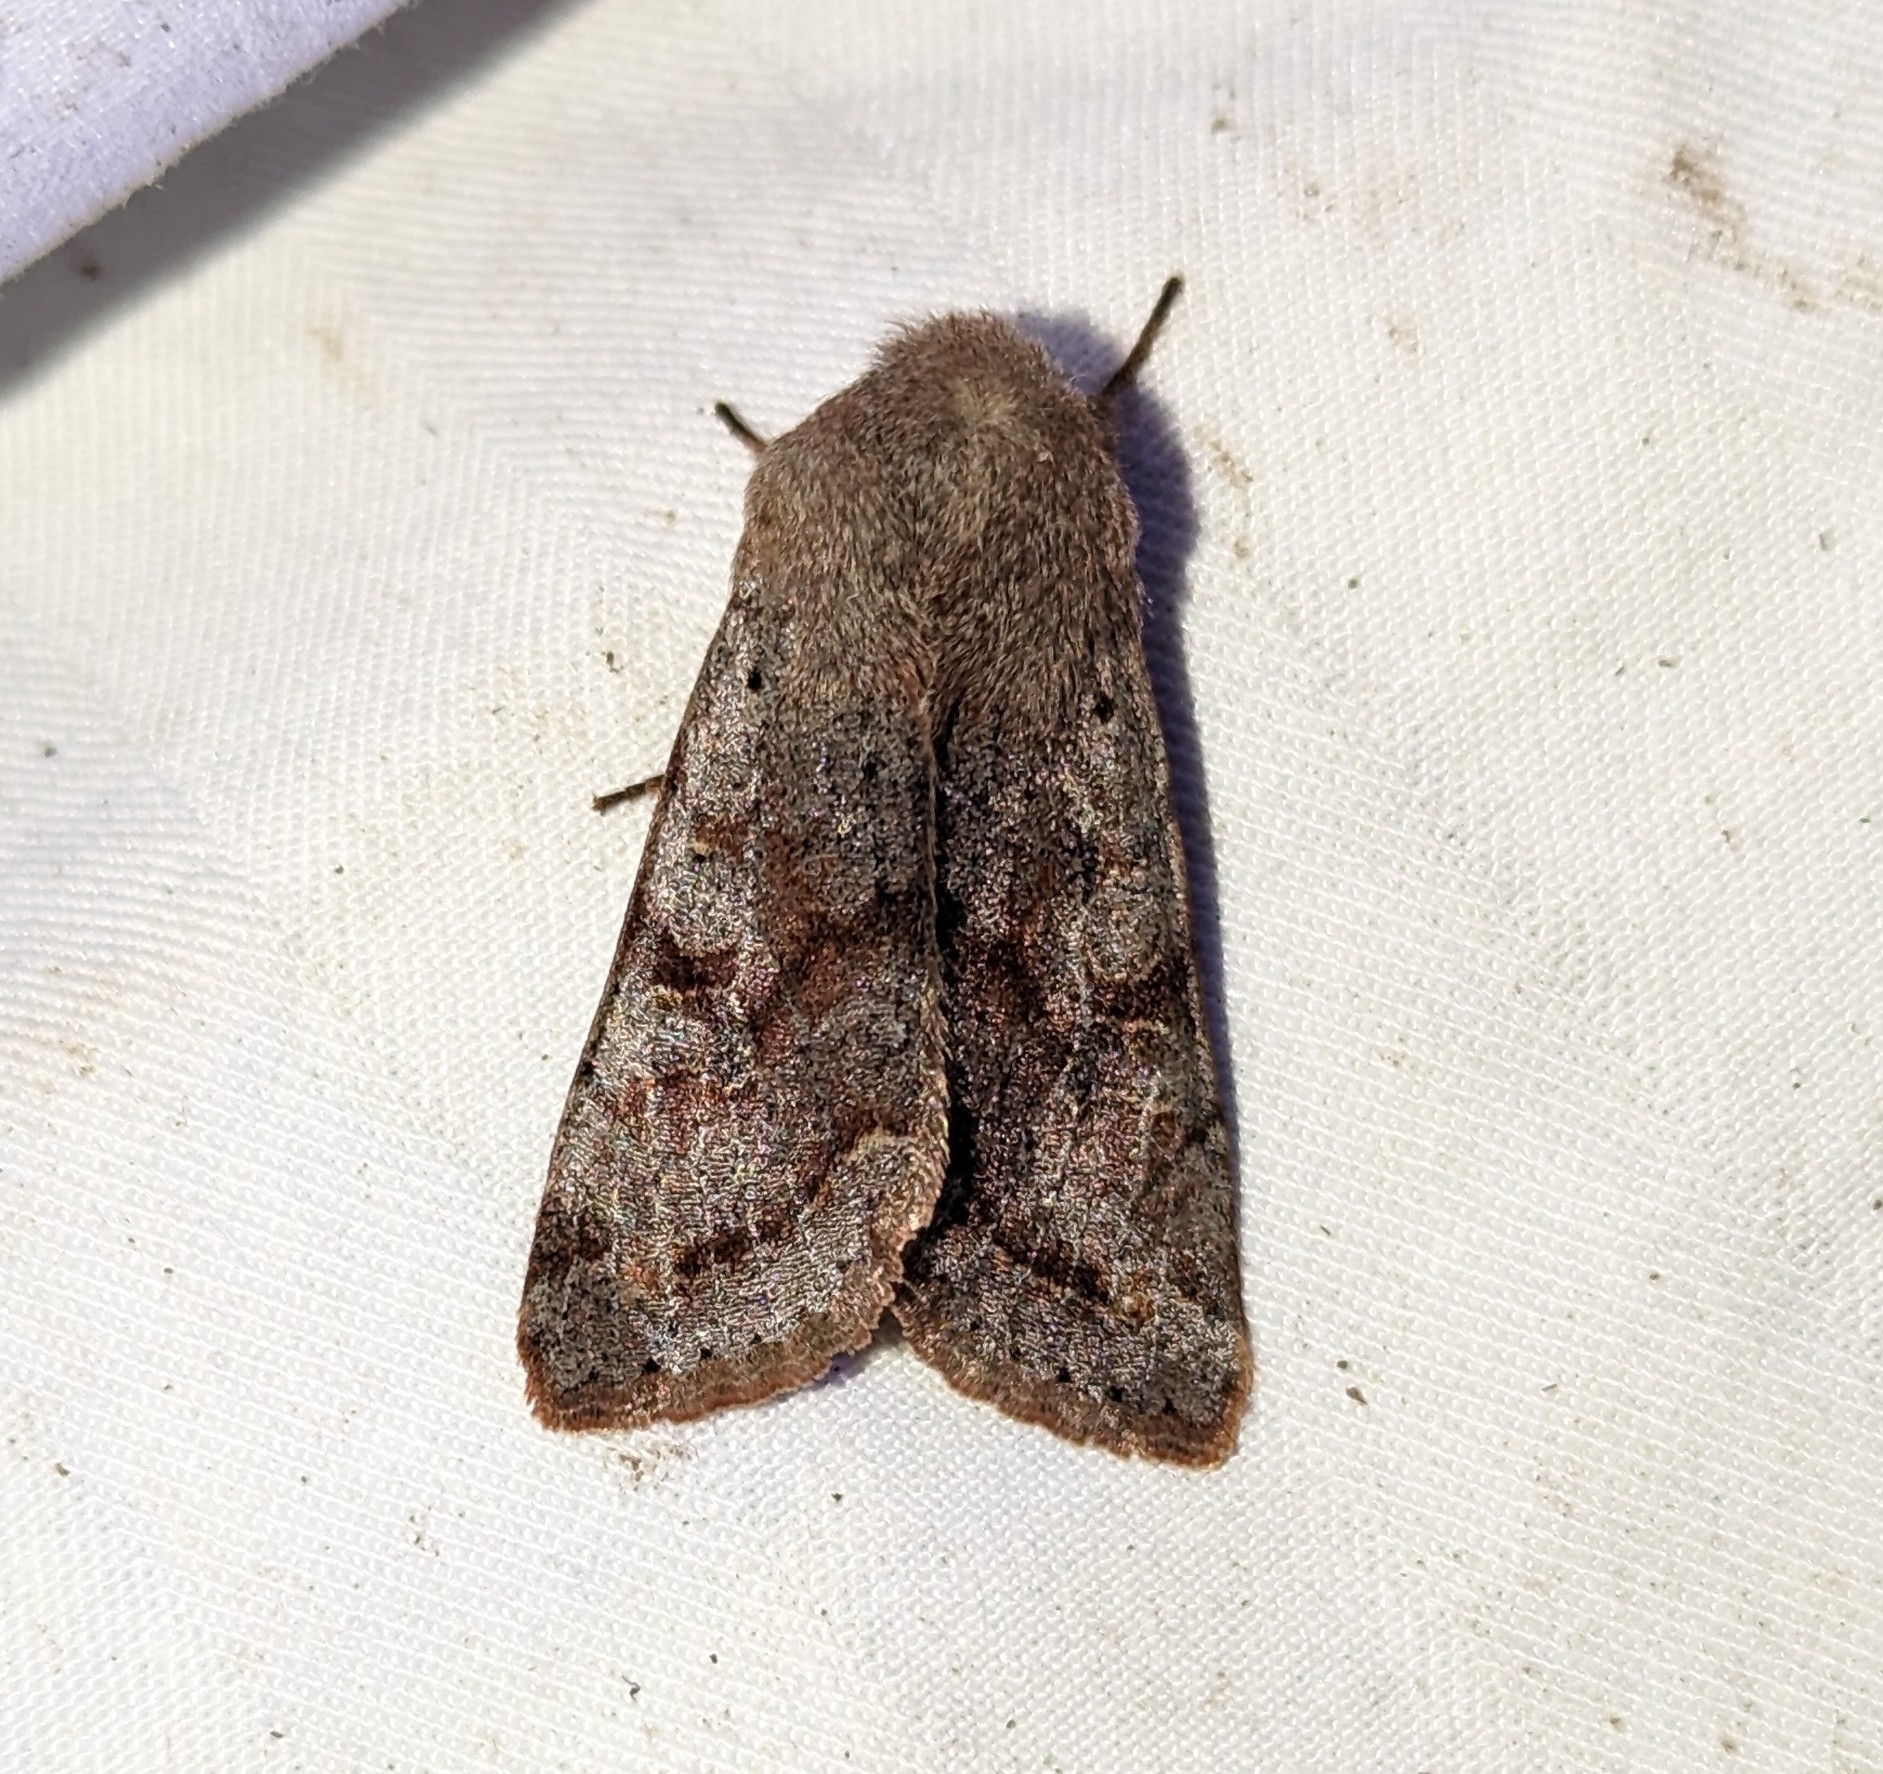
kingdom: Animalia
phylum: Arthropoda
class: Insecta
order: Lepidoptera
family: Noctuidae
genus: Orthosia
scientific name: Orthosia hibisci
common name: Green fruitworm
